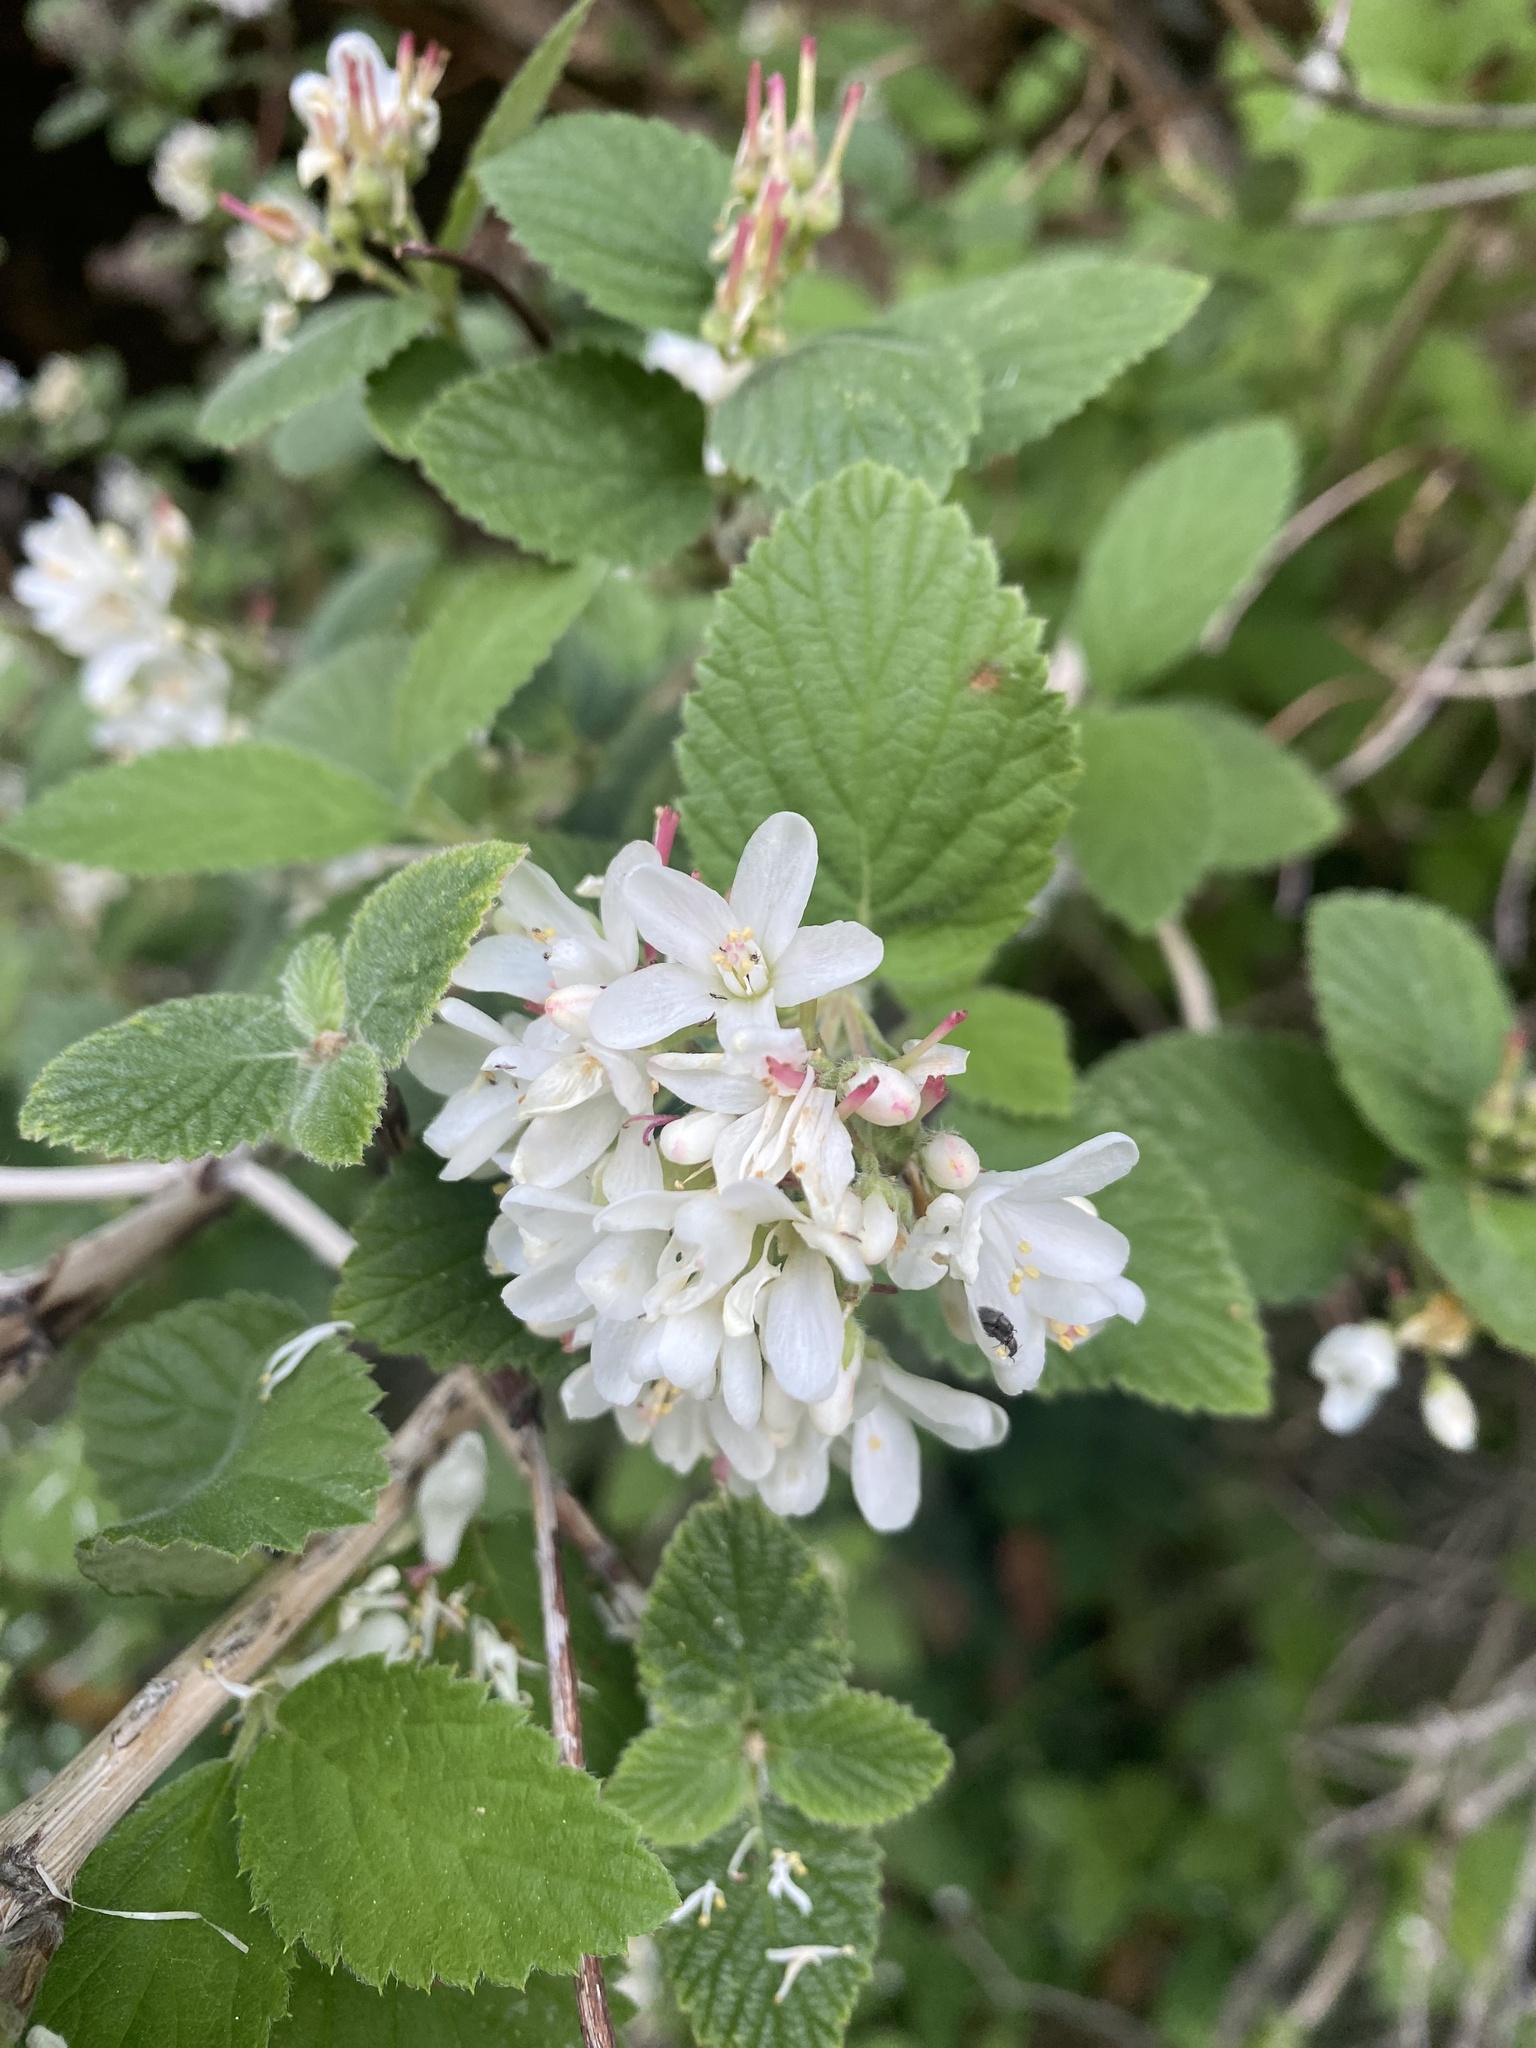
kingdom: Plantae
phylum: Tracheophyta
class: Magnoliopsida
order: Cornales
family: Hydrangeaceae
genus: Jamesia
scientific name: Jamesia americana
